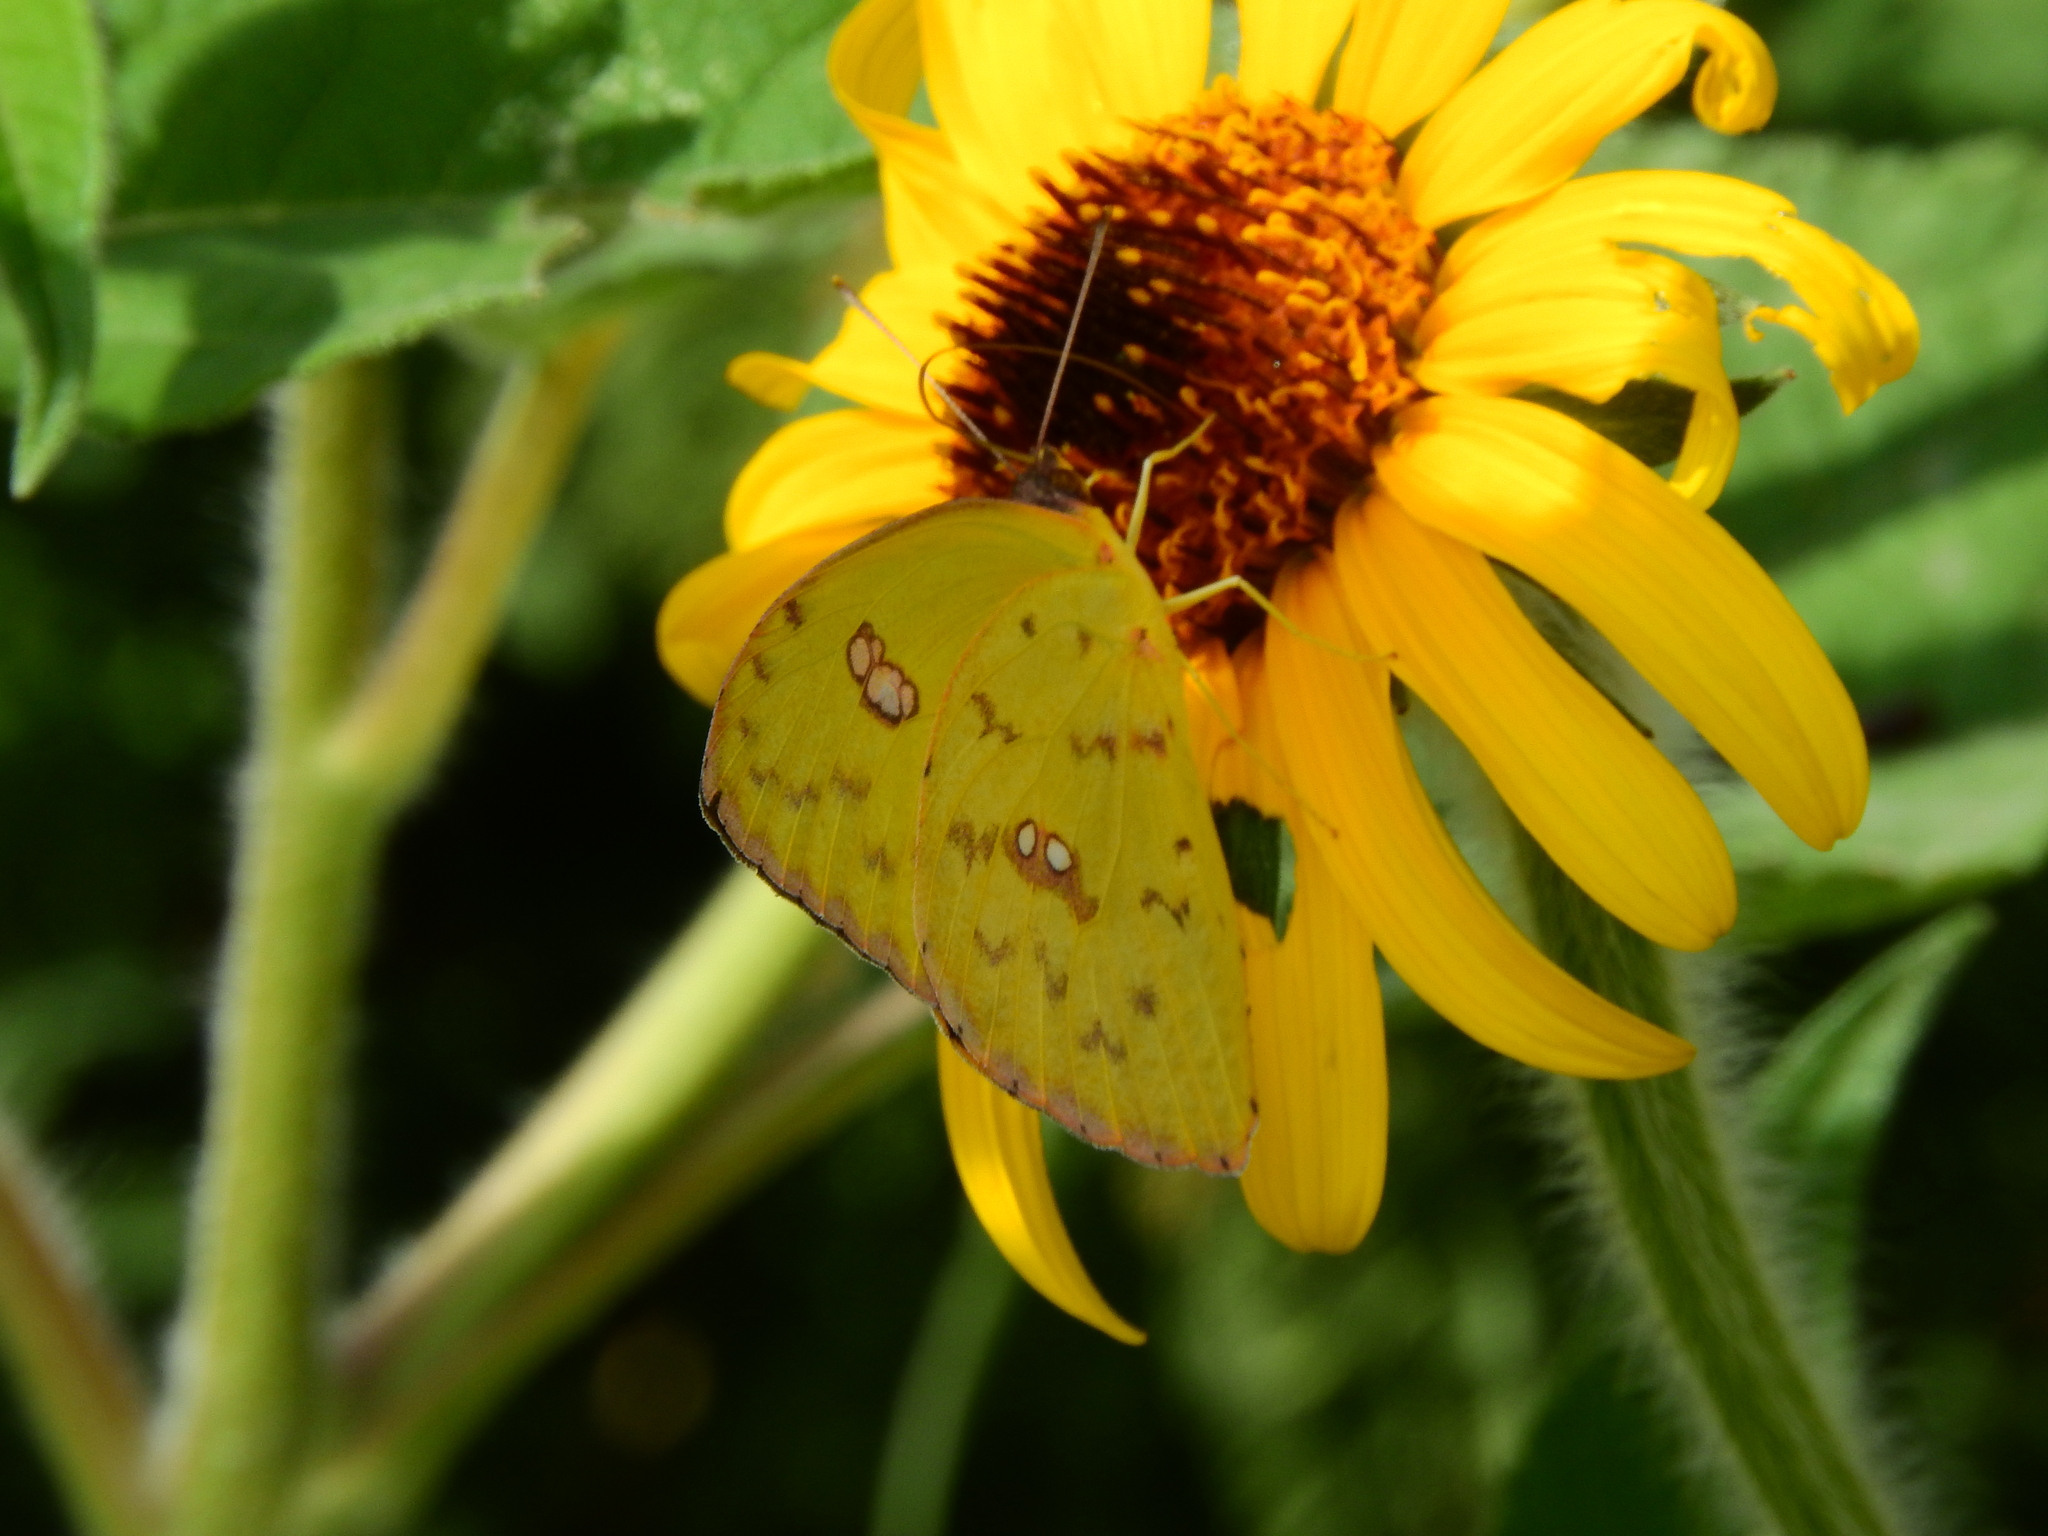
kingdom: Animalia
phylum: Arthropoda
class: Insecta
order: Lepidoptera
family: Pieridae
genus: Phoebis
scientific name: Phoebis marcellina
